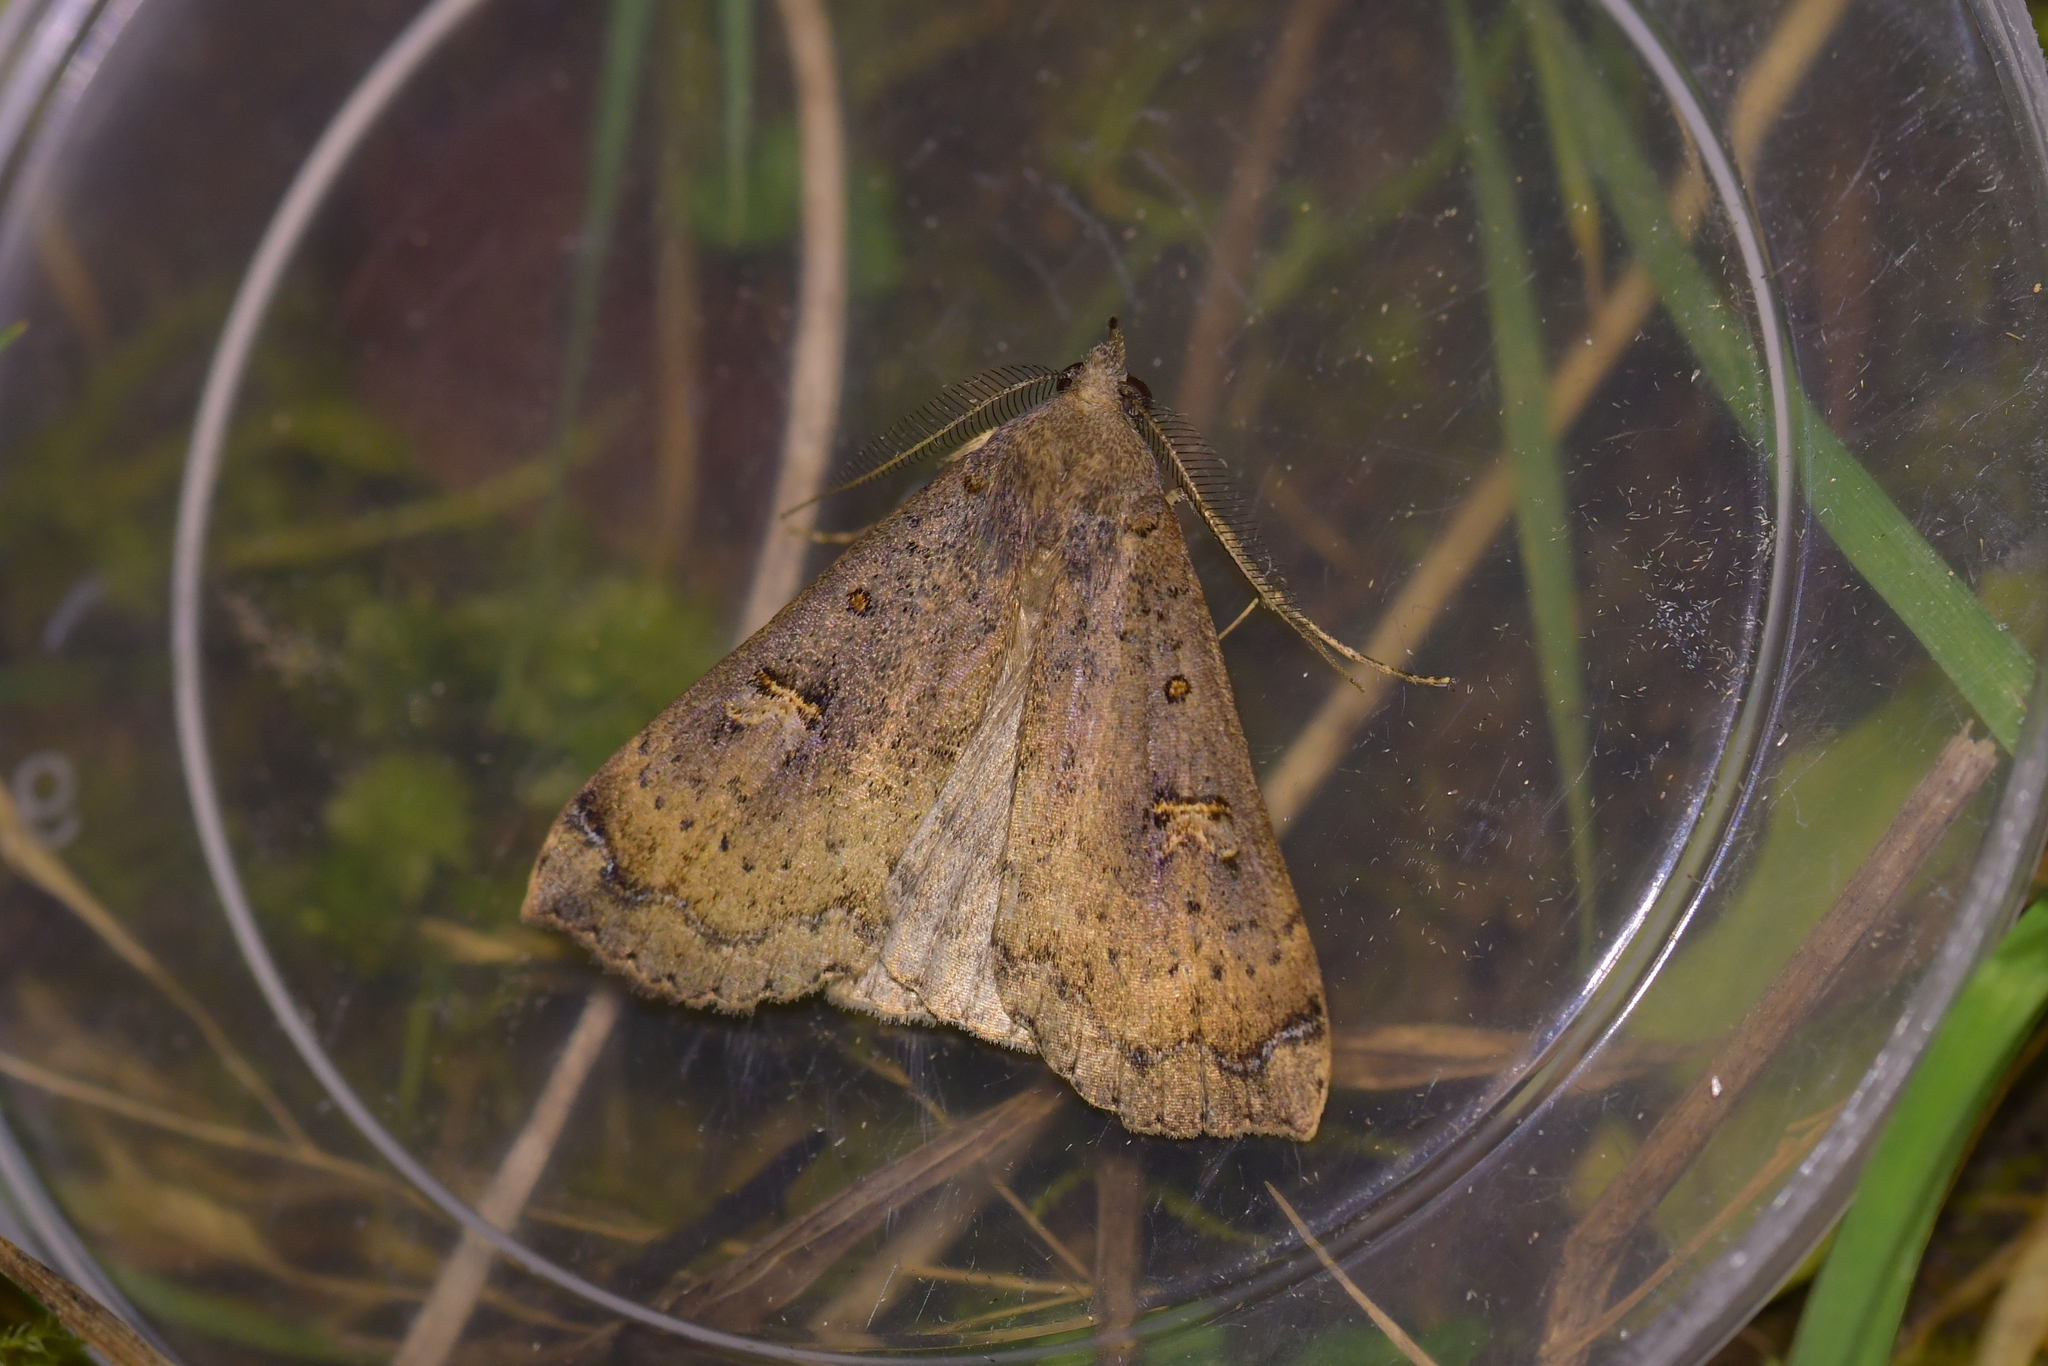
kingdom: Animalia
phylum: Arthropoda
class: Insecta
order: Lepidoptera
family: Erebidae
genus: Rhapsa
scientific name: Rhapsa scotosialis
